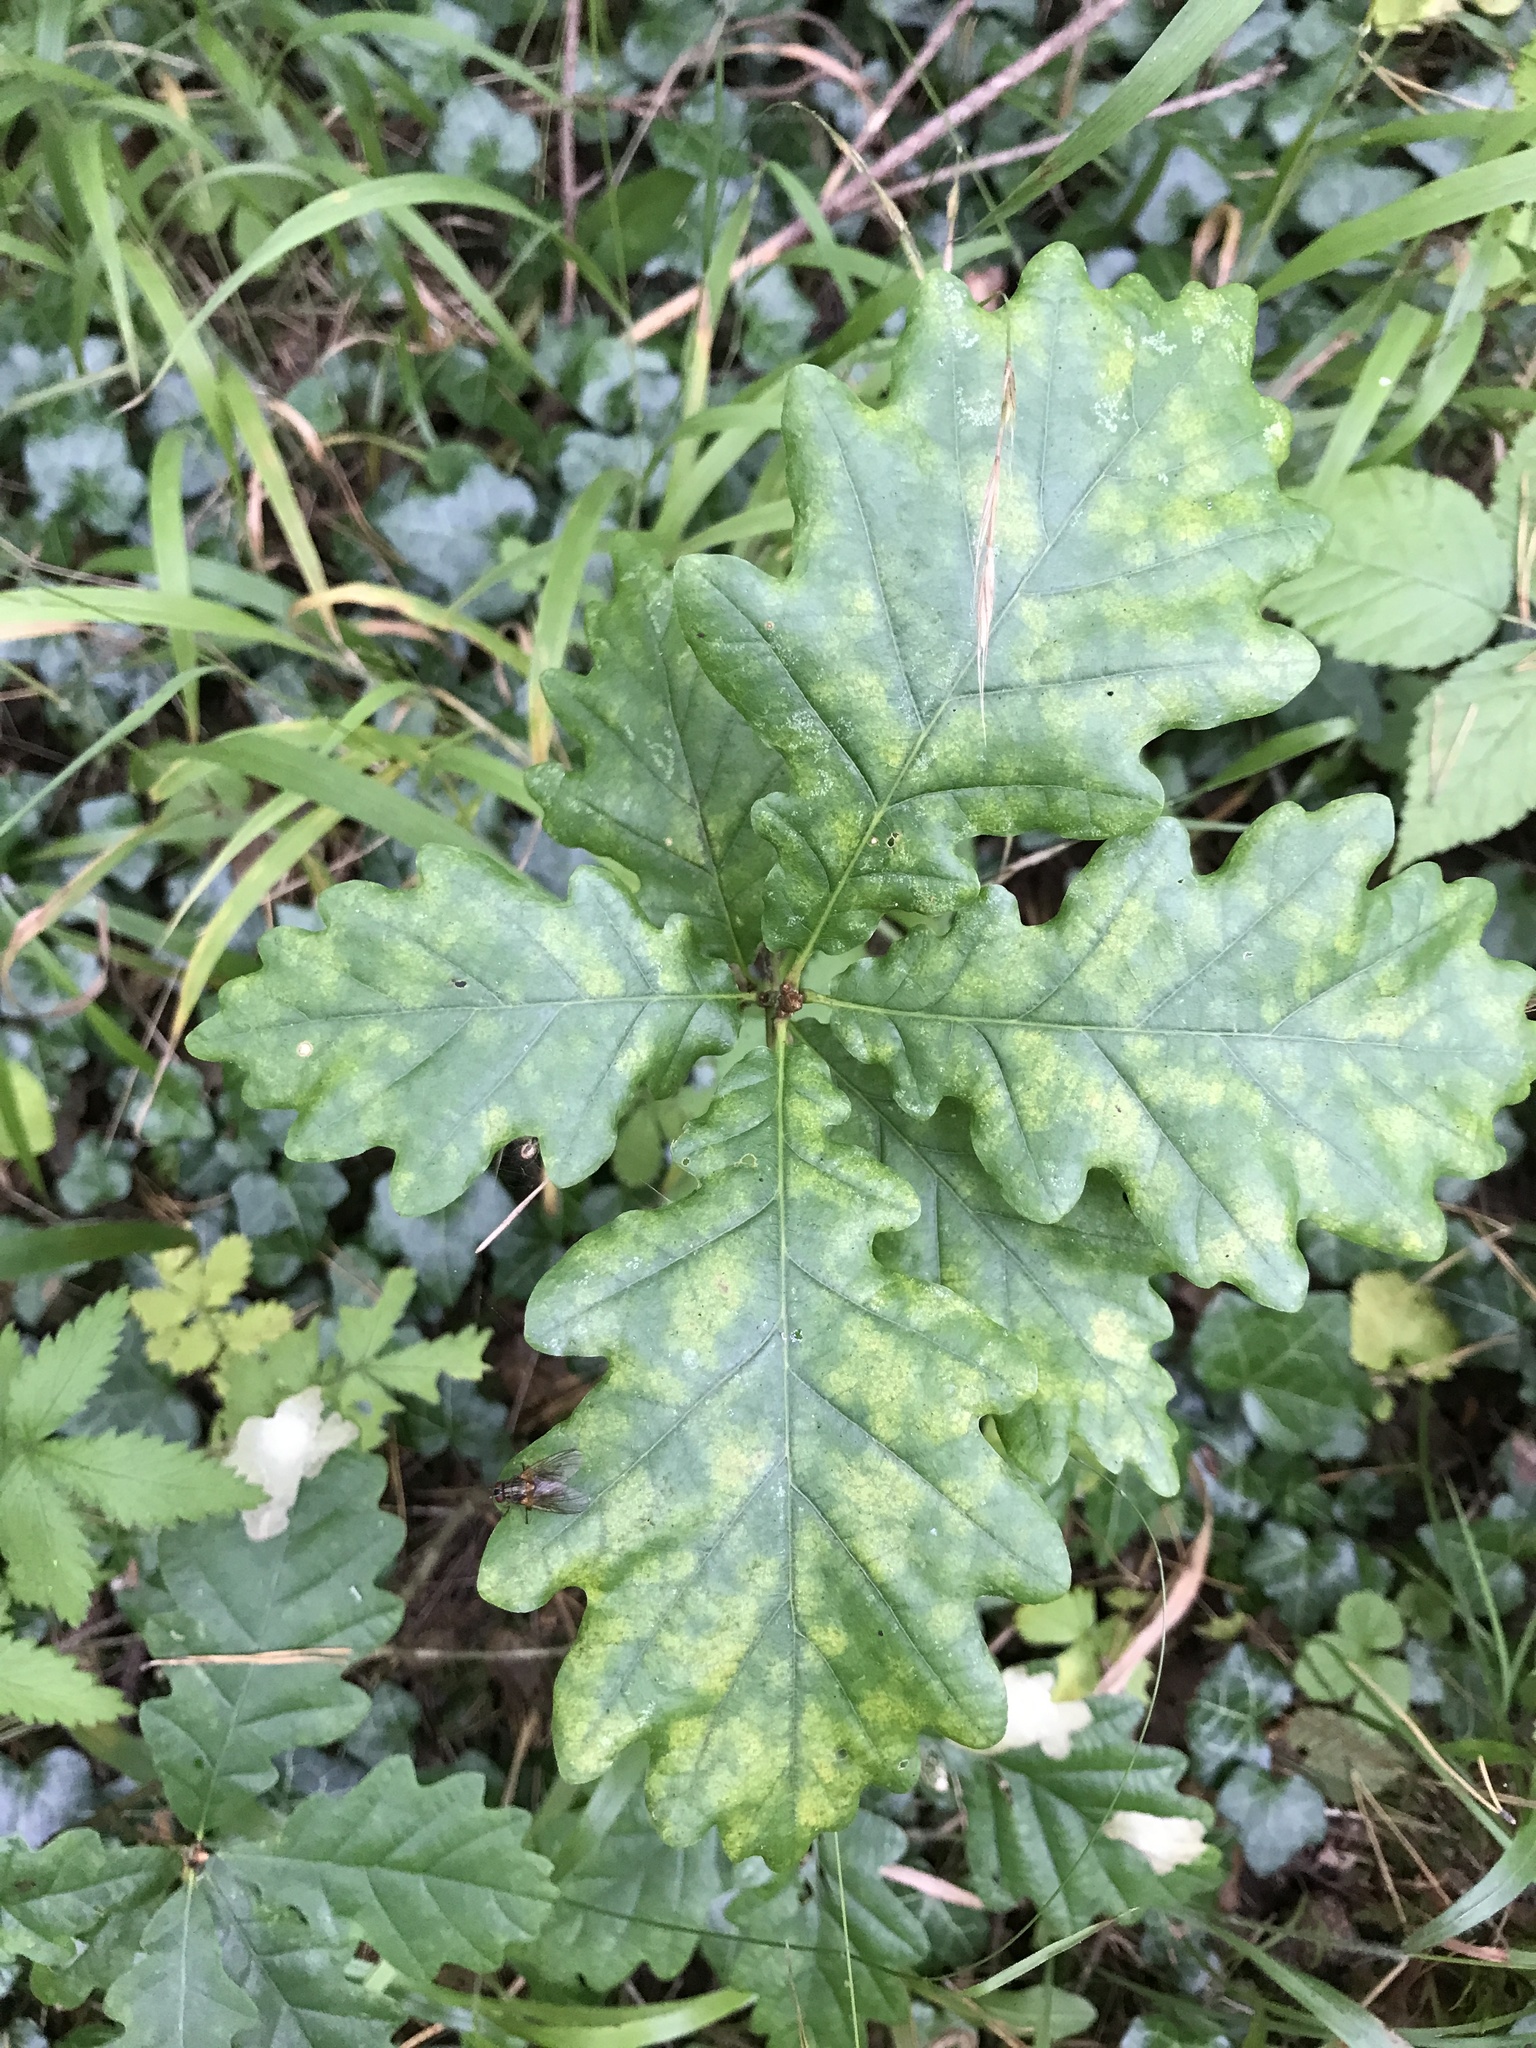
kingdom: Plantae
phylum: Tracheophyta
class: Magnoliopsida
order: Fagales
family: Fagaceae
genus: Quercus
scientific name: Quercus robur
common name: Pedunculate oak
